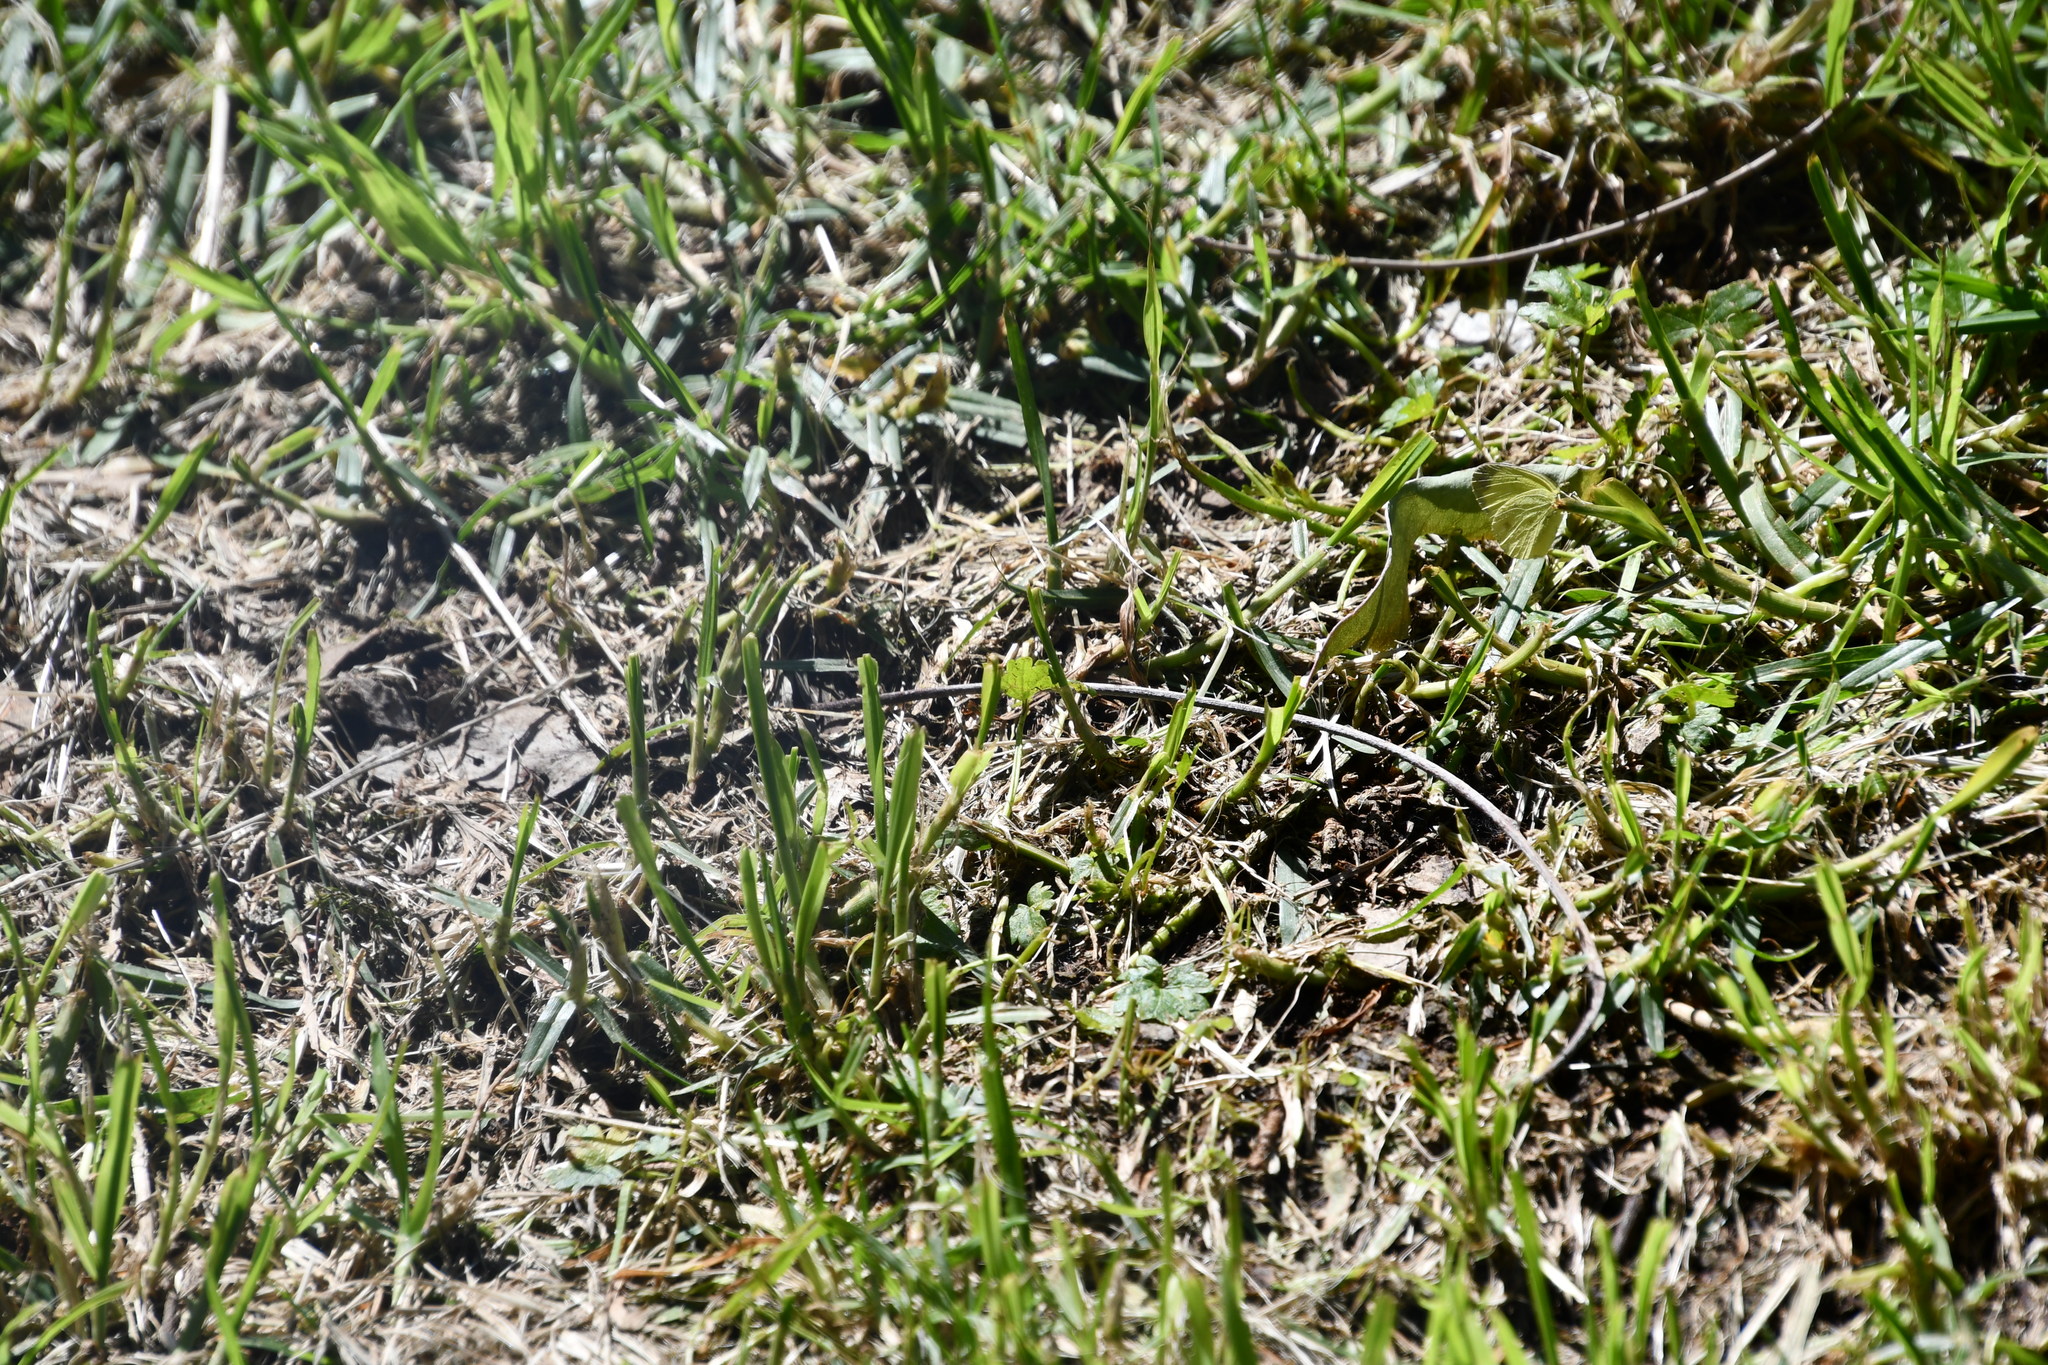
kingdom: Animalia
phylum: Arthropoda
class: Insecta
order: Lepidoptera
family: Pieridae
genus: Eurema
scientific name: Eurema smilax
